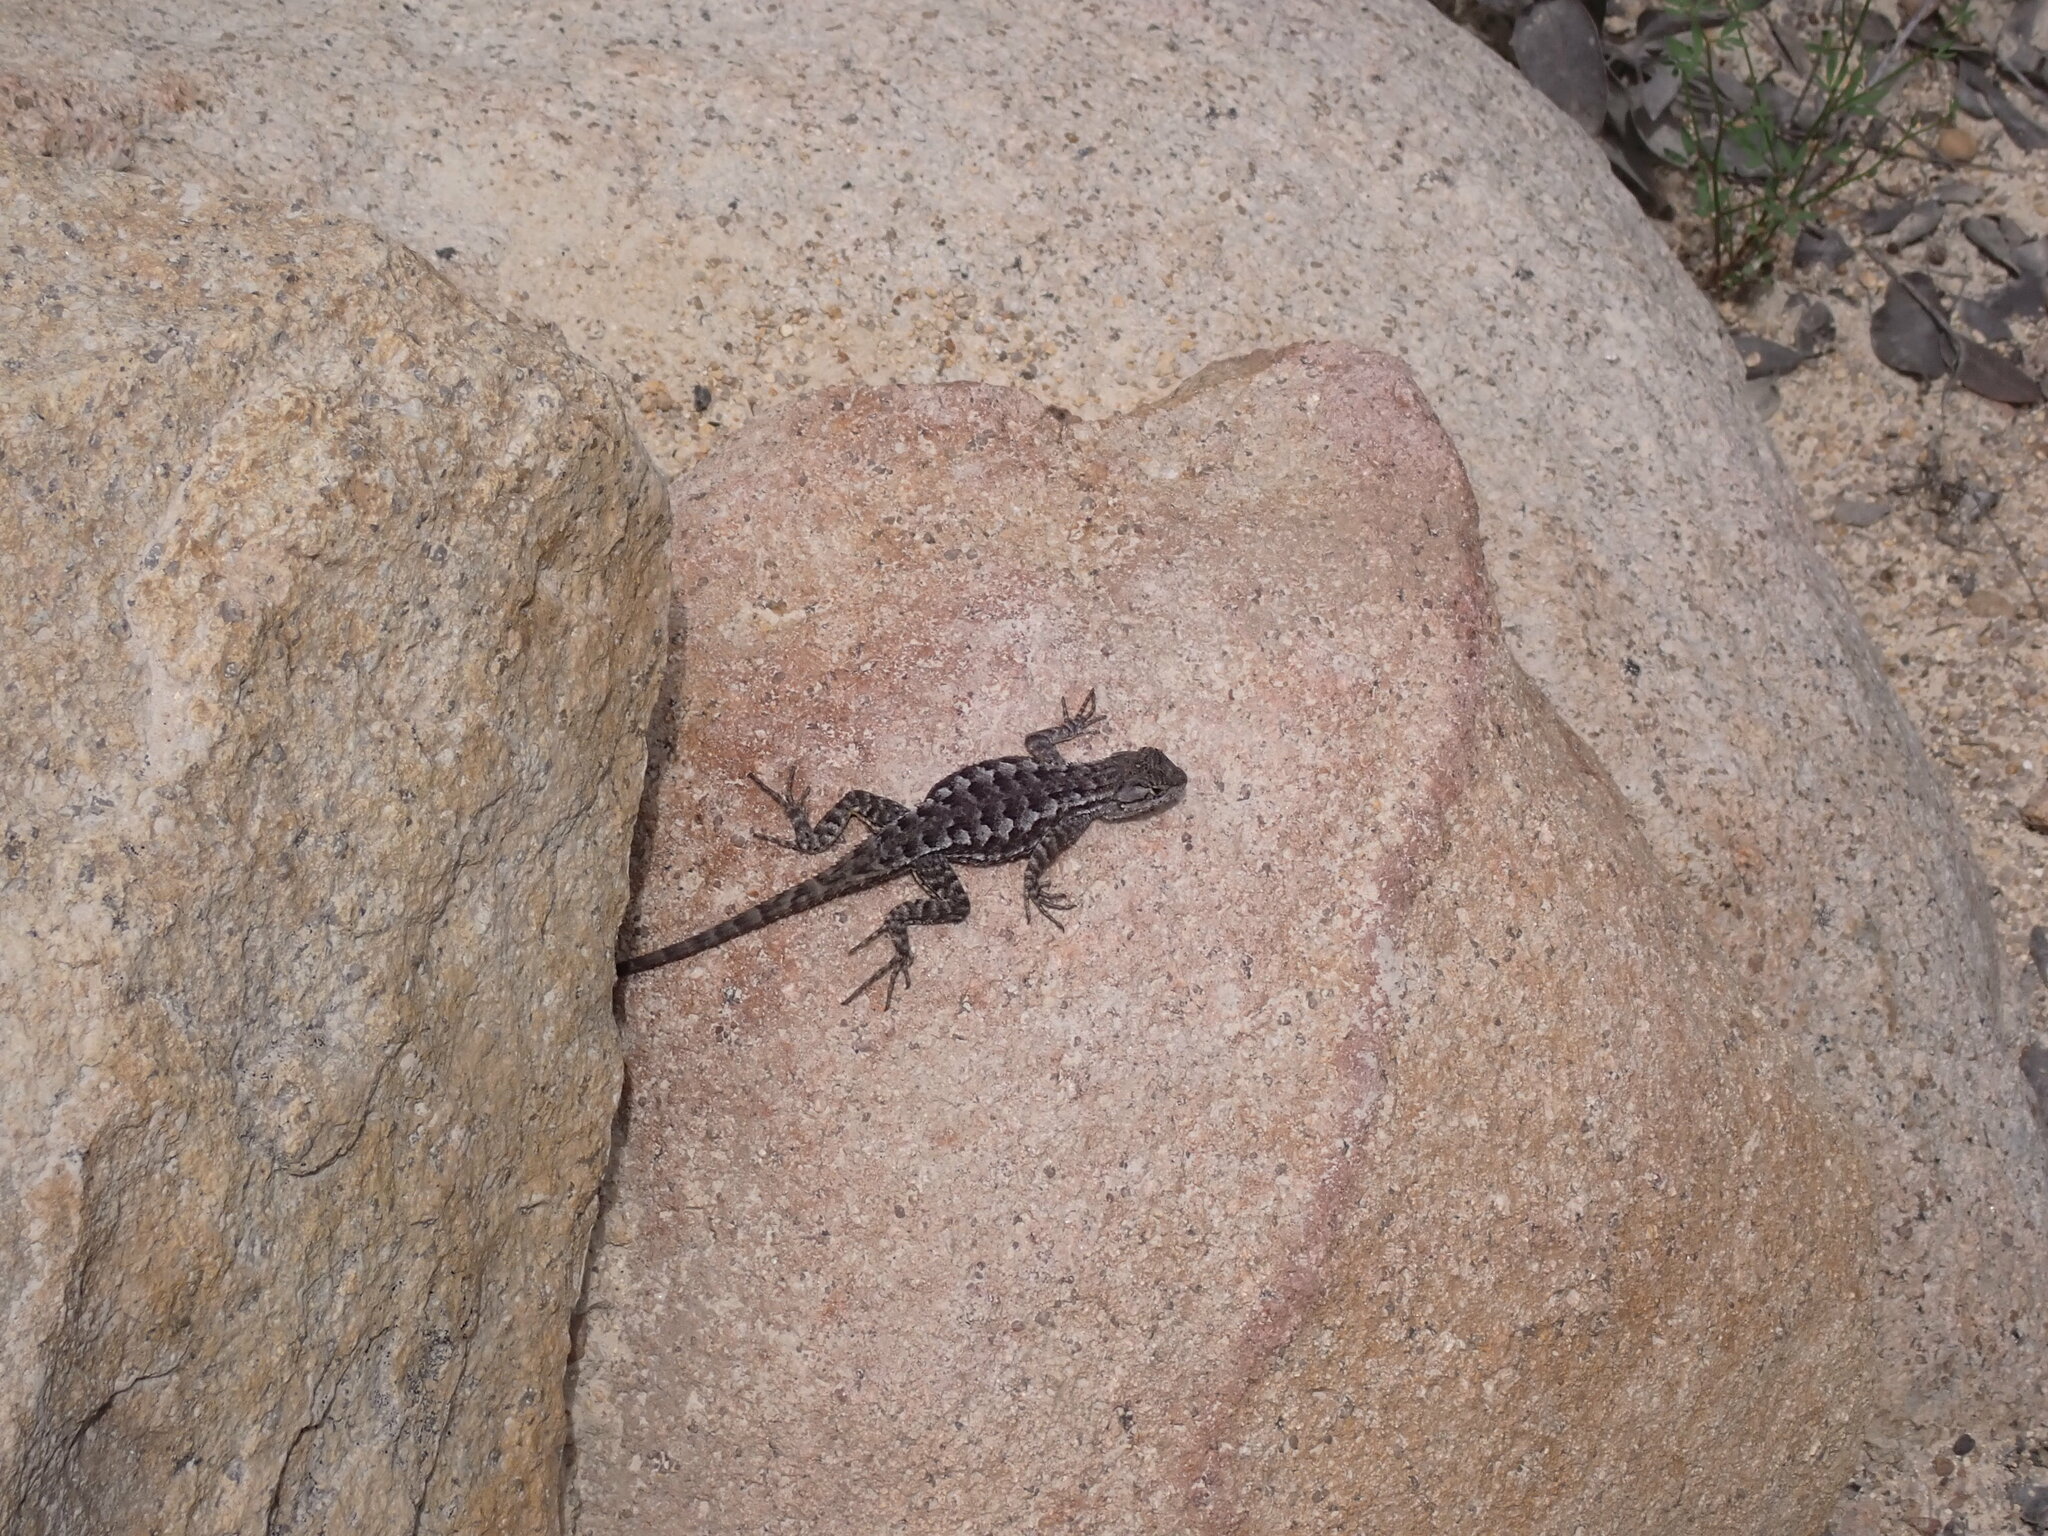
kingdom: Animalia
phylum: Chordata
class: Squamata
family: Phrynosomatidae
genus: Sceloporus
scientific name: Sceloporus occidentalis
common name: Western fence lizard
